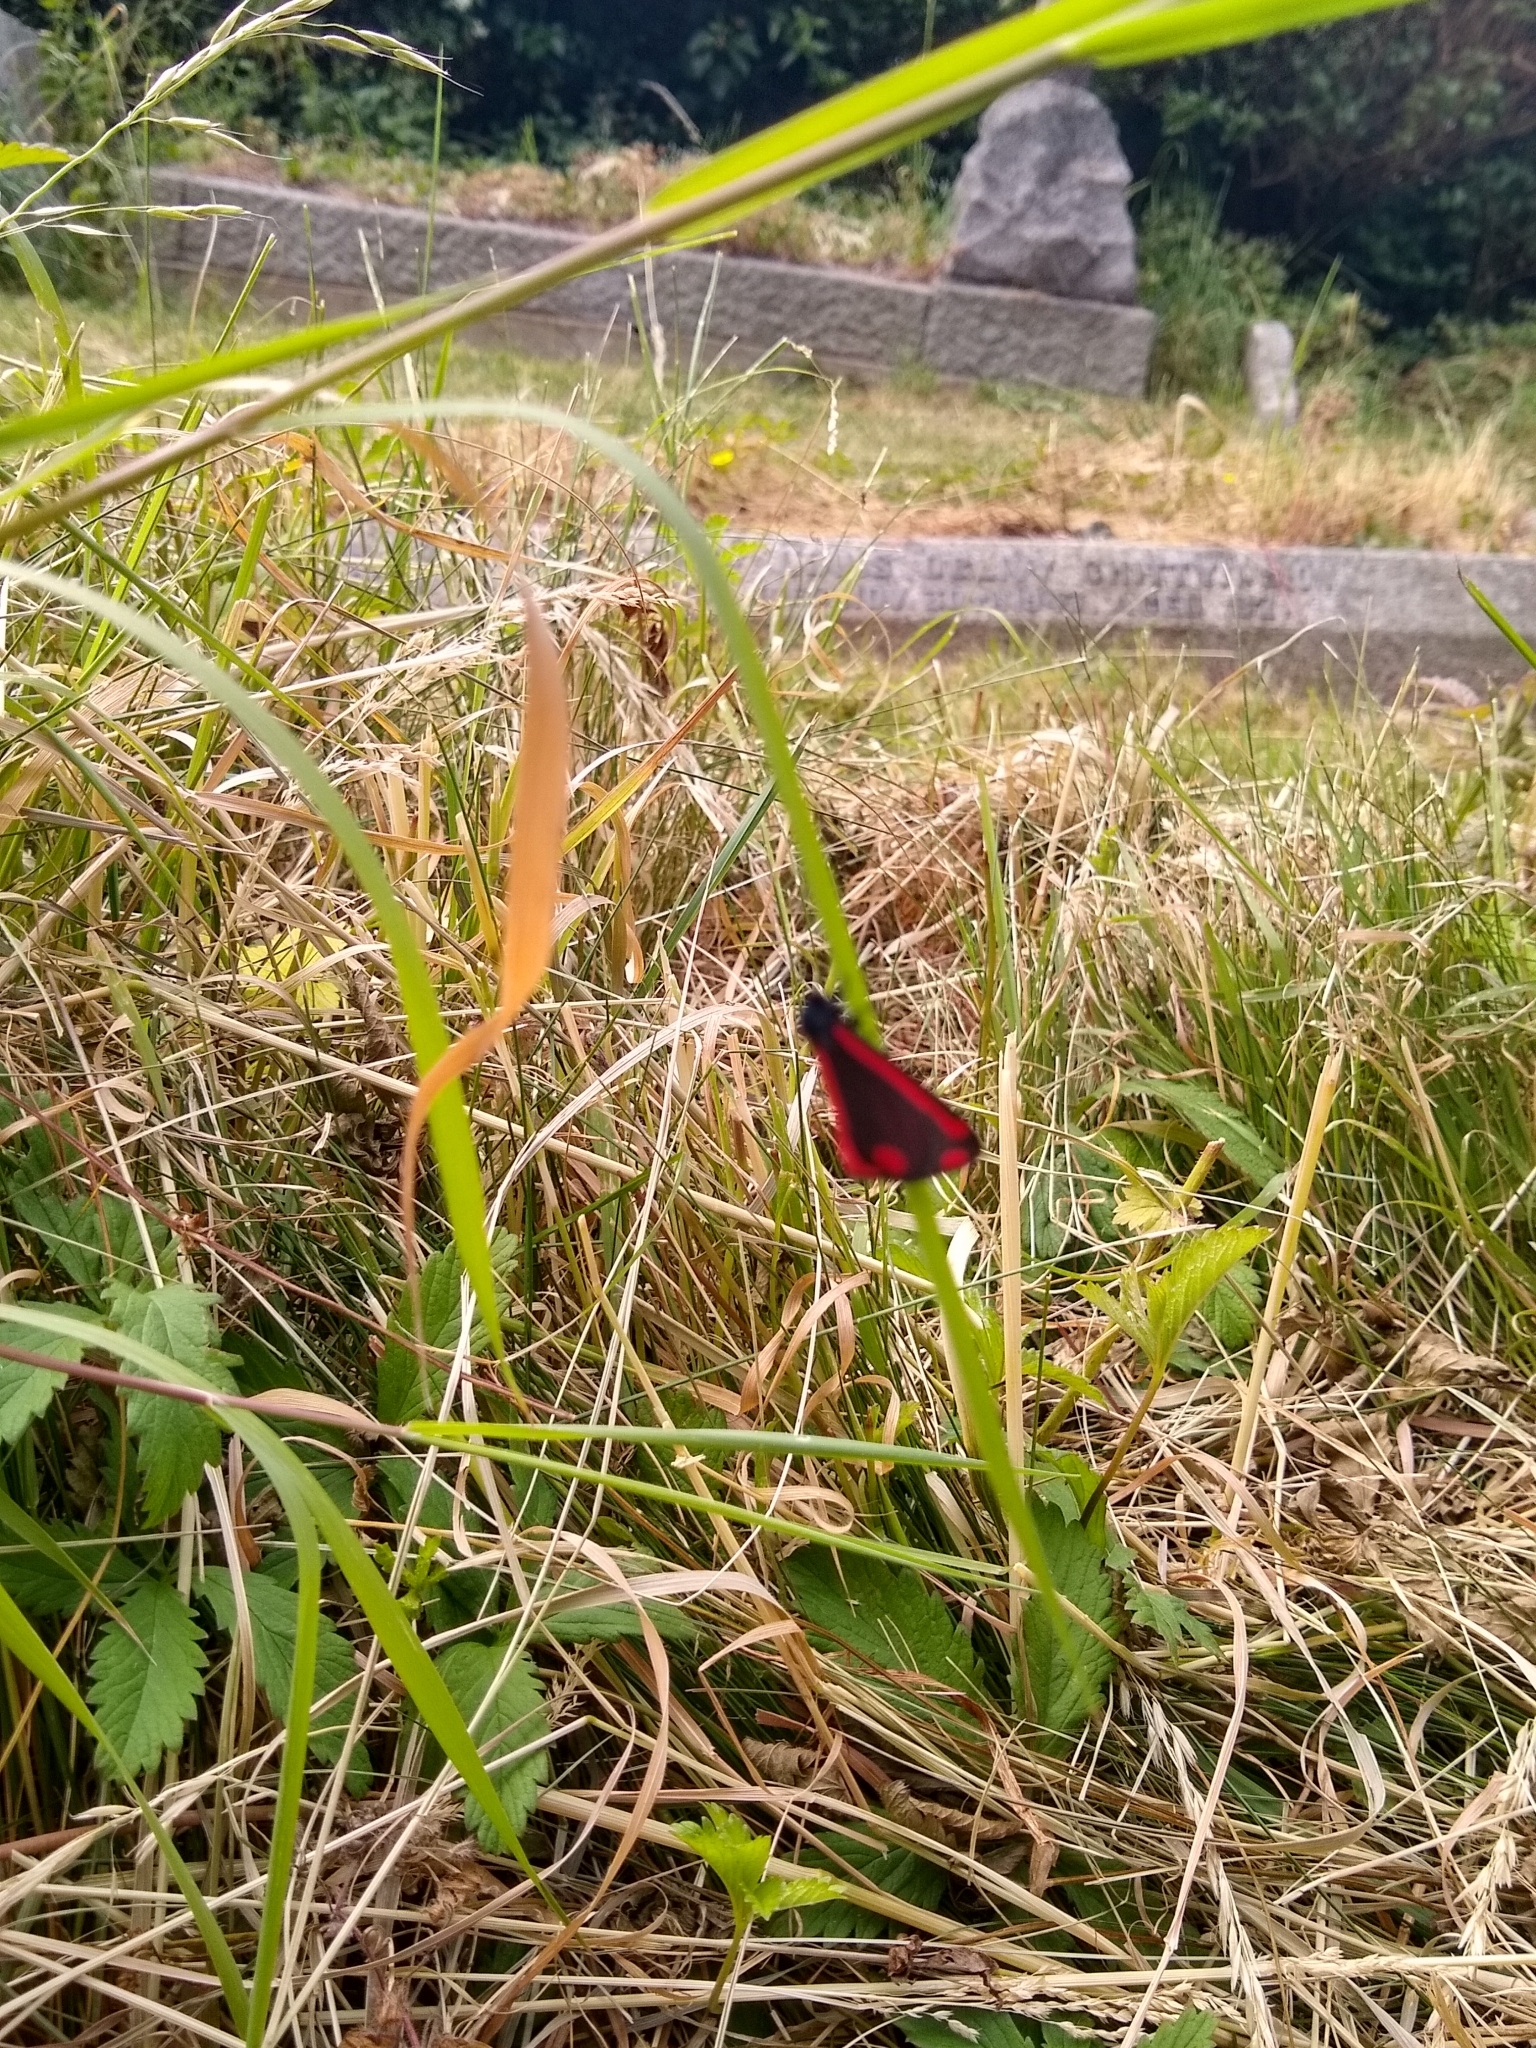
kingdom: Animalia
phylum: Arthropoda
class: Insecta
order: Lepidoptera
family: Erebidae
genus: Tyria
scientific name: Tyria jacobaeae
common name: Cinnabar
